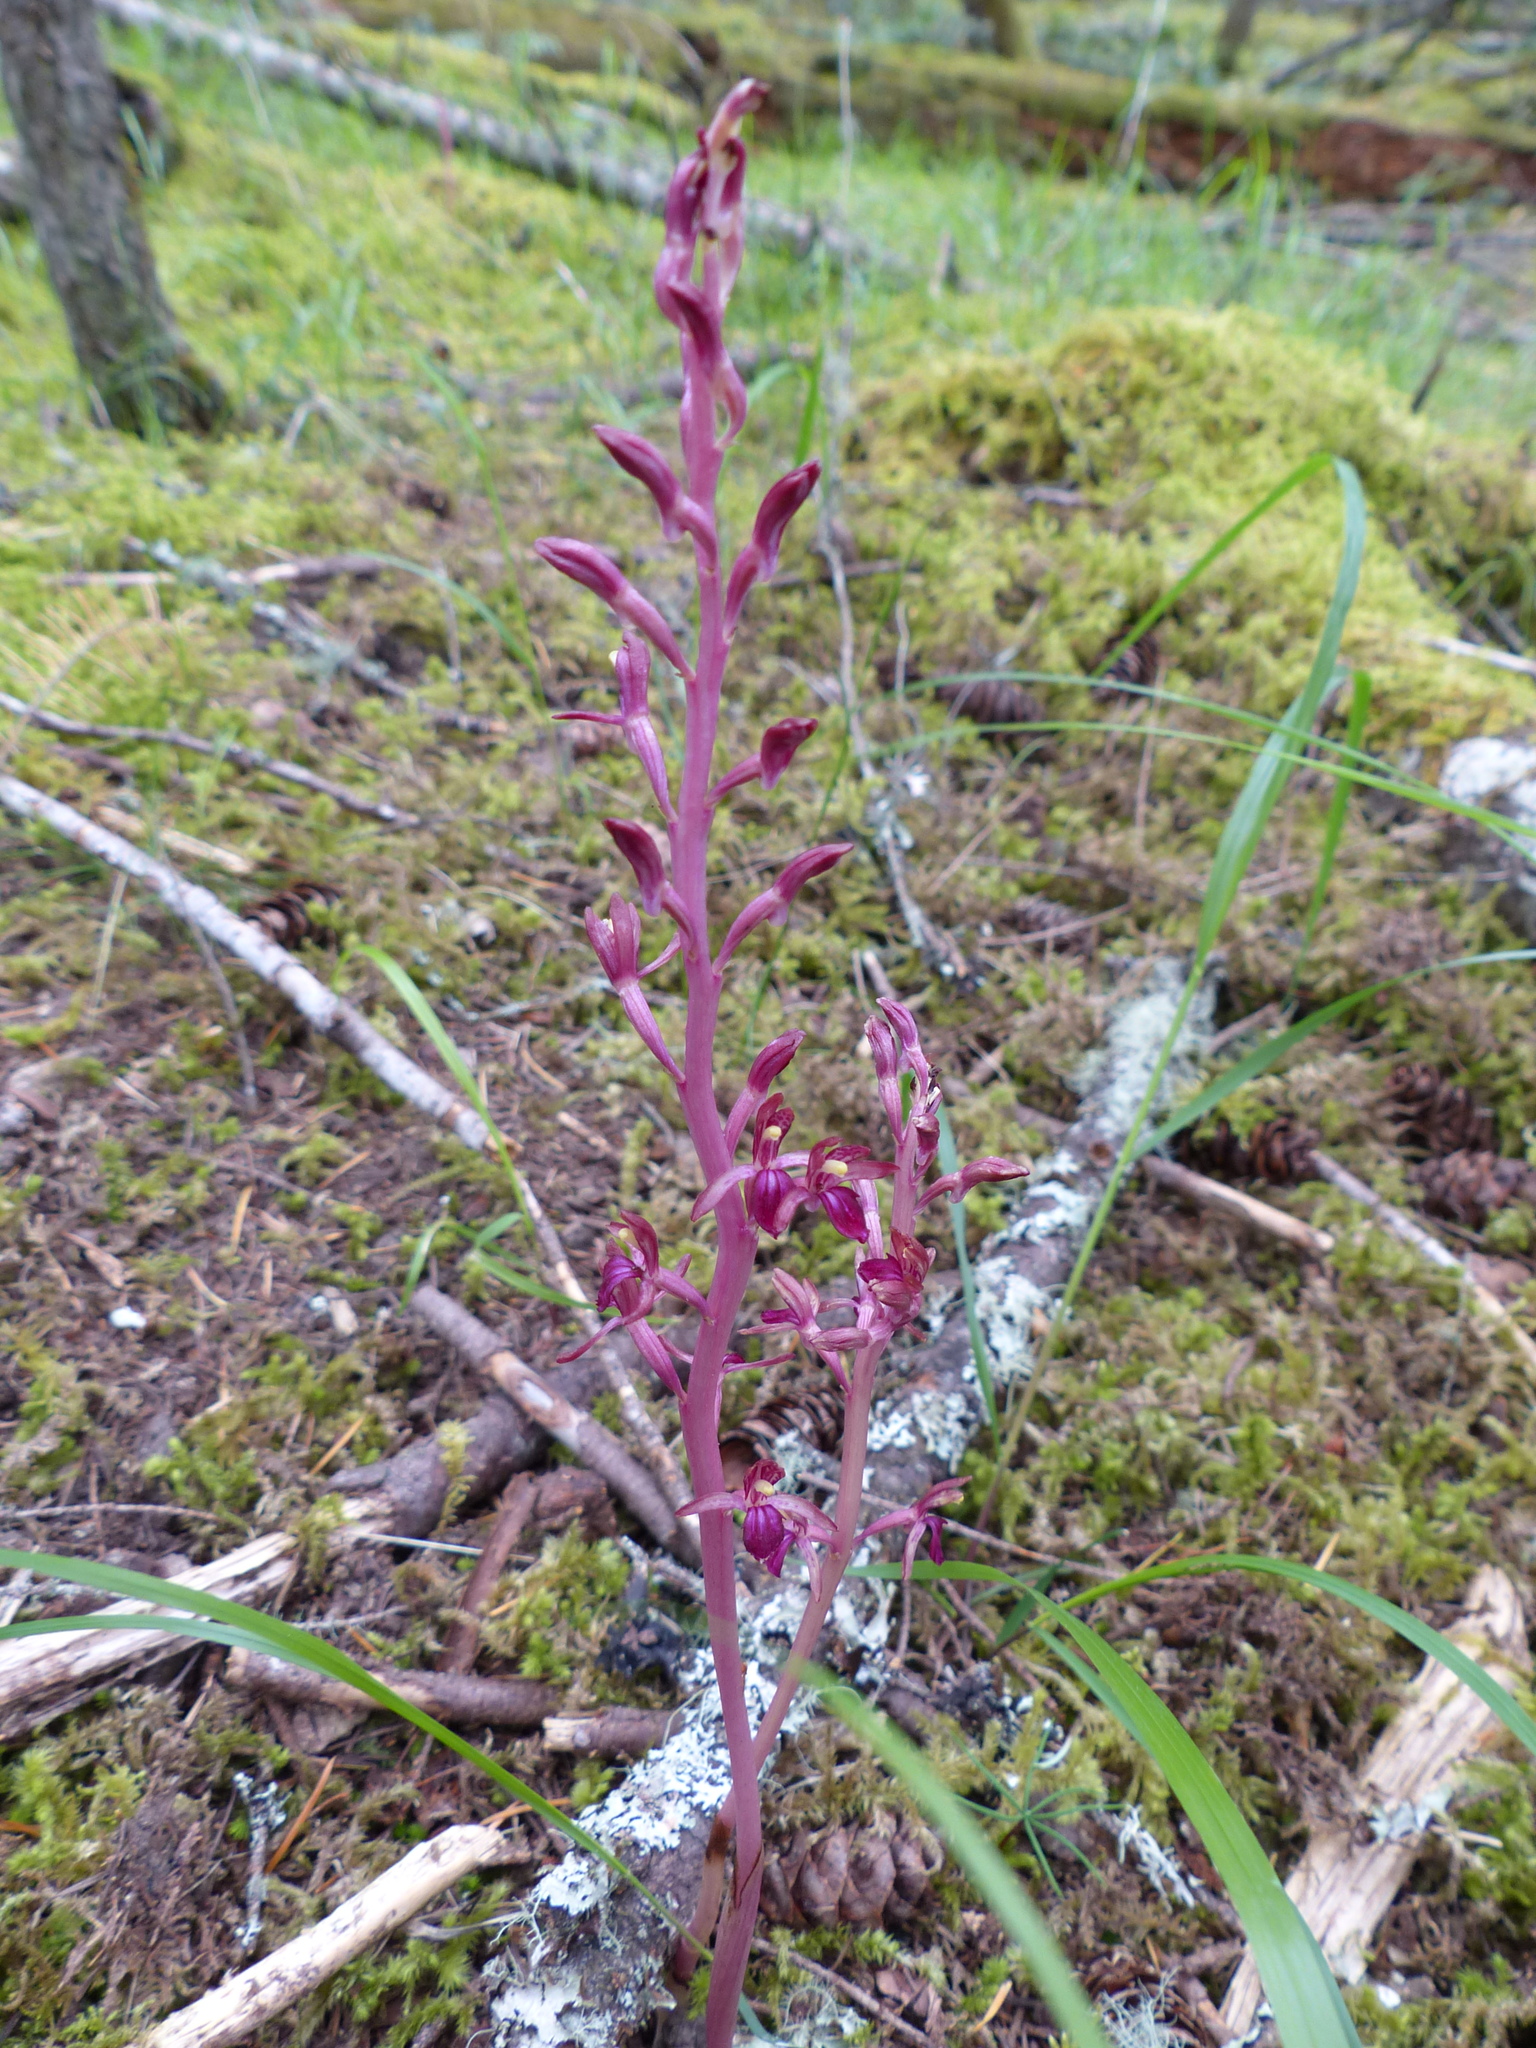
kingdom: Plantae
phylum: Tracheophyta
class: Liliopsida
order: Asparagales
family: Orchidaceae
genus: Corallorhiza
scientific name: Corallorhiza mertensiana
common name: Pacific coralroot
